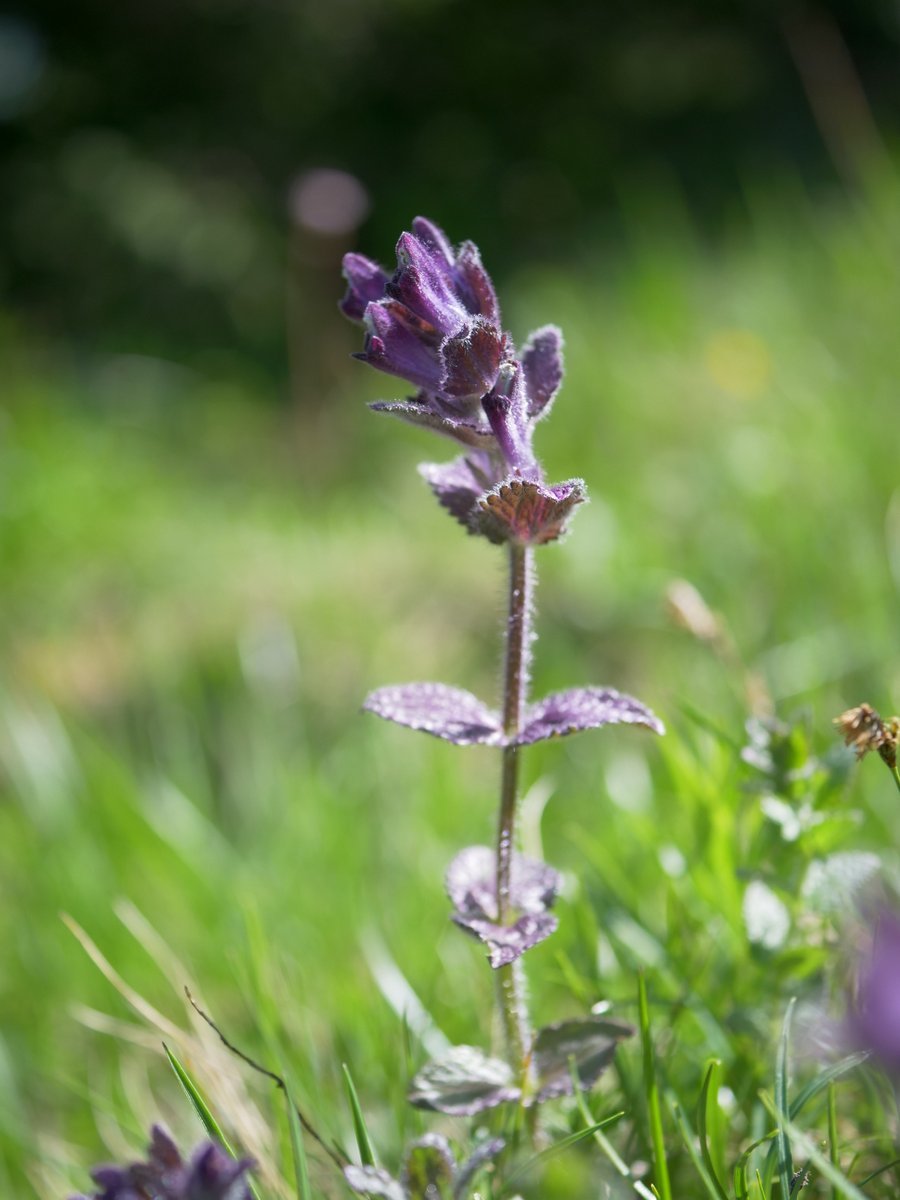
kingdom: Plantae
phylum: Tracheophyta
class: Magnoliopsida
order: Lamiales
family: Orobanchaceae
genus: Bartsia
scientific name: Bartsia alpina
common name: Alpine bartsia
